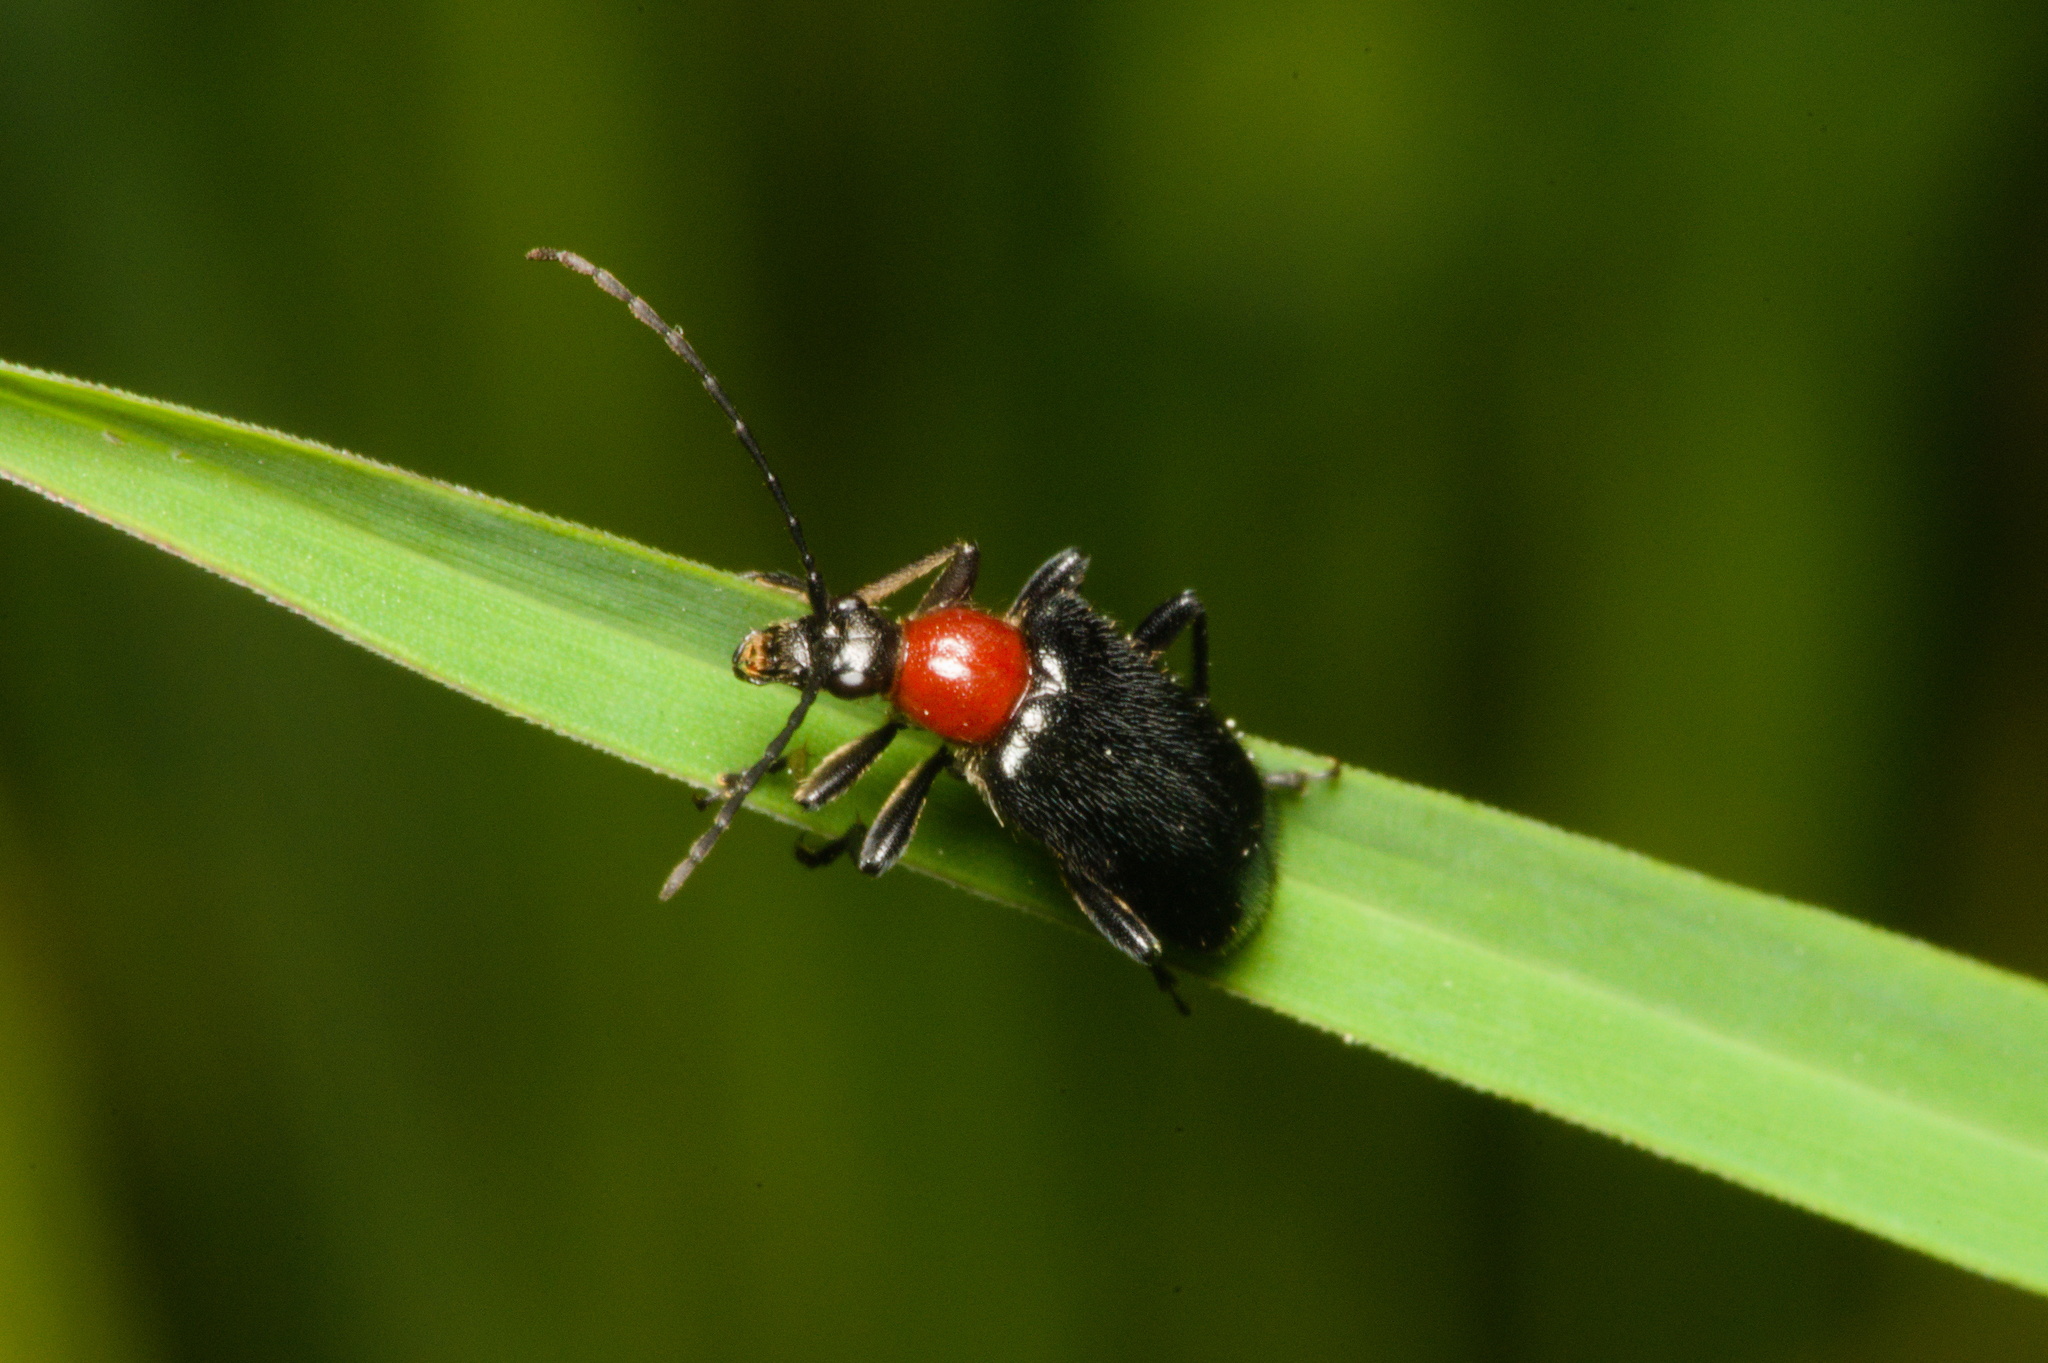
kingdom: Animalia
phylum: Arthropoda
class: Insecta
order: Coleoptera
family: Cerambycidae
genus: Dinoptera
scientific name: Dinoptera collaris
